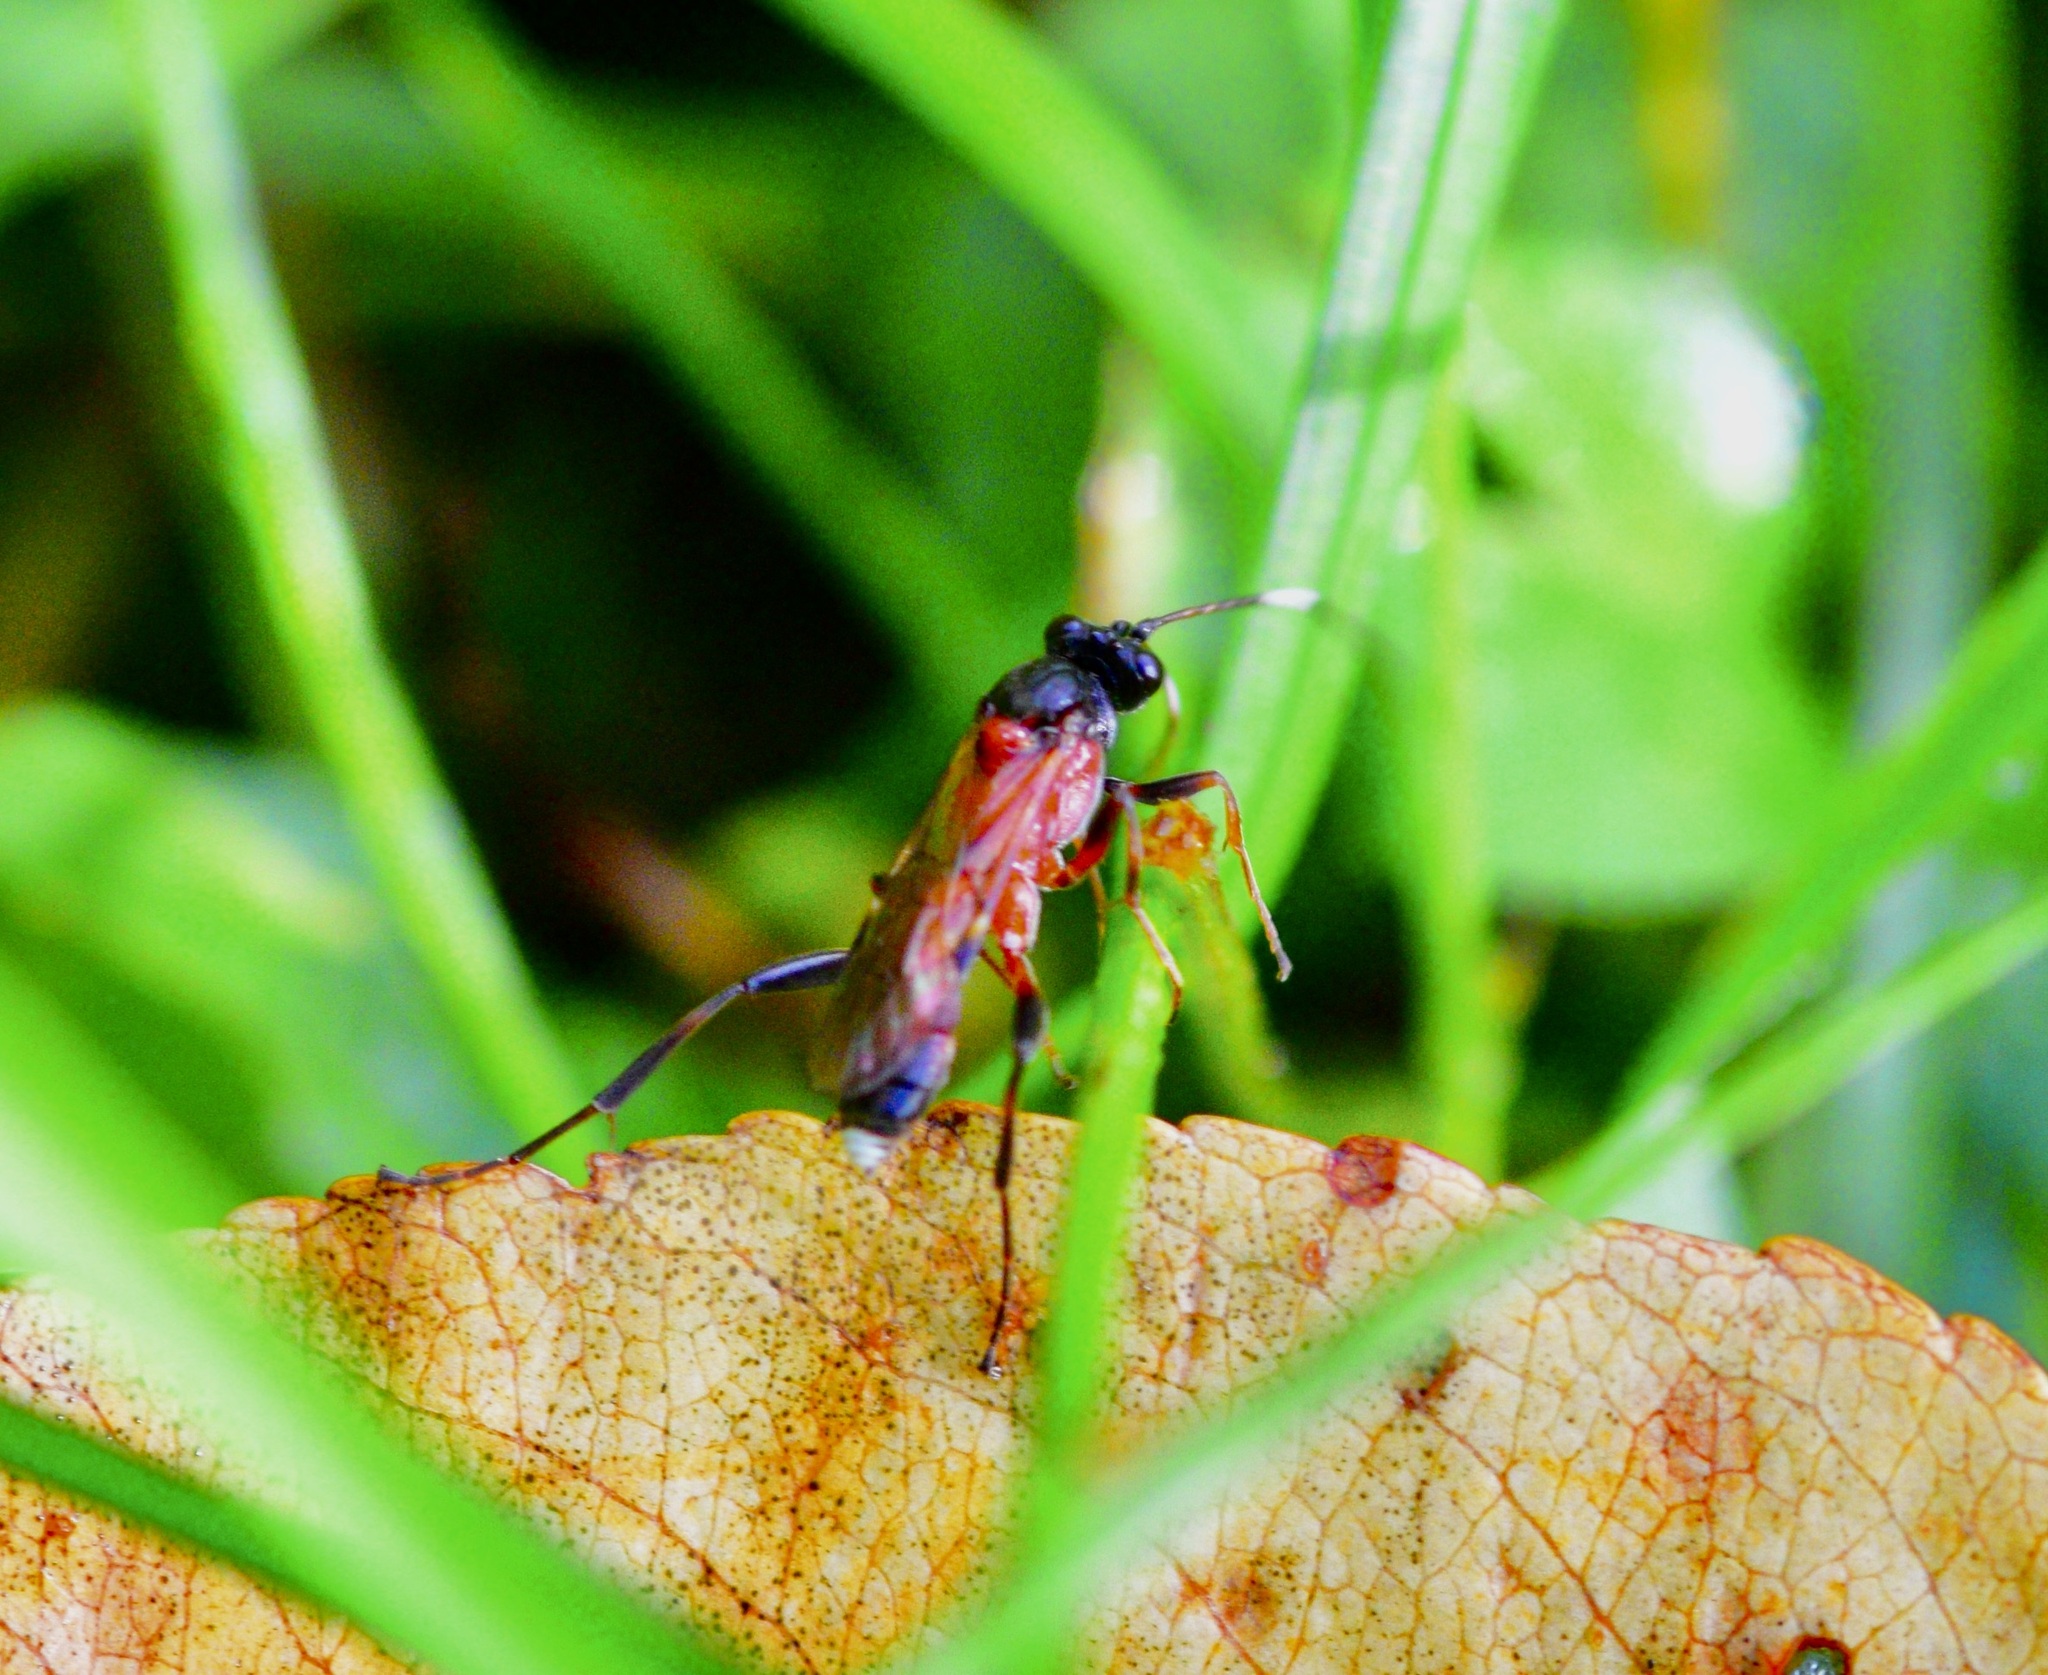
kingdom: Animalia
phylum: Arthropoda
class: Insecta
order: Hymenoptera
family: Ichneumonidae
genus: Linycus
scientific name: Linycus exhortator
